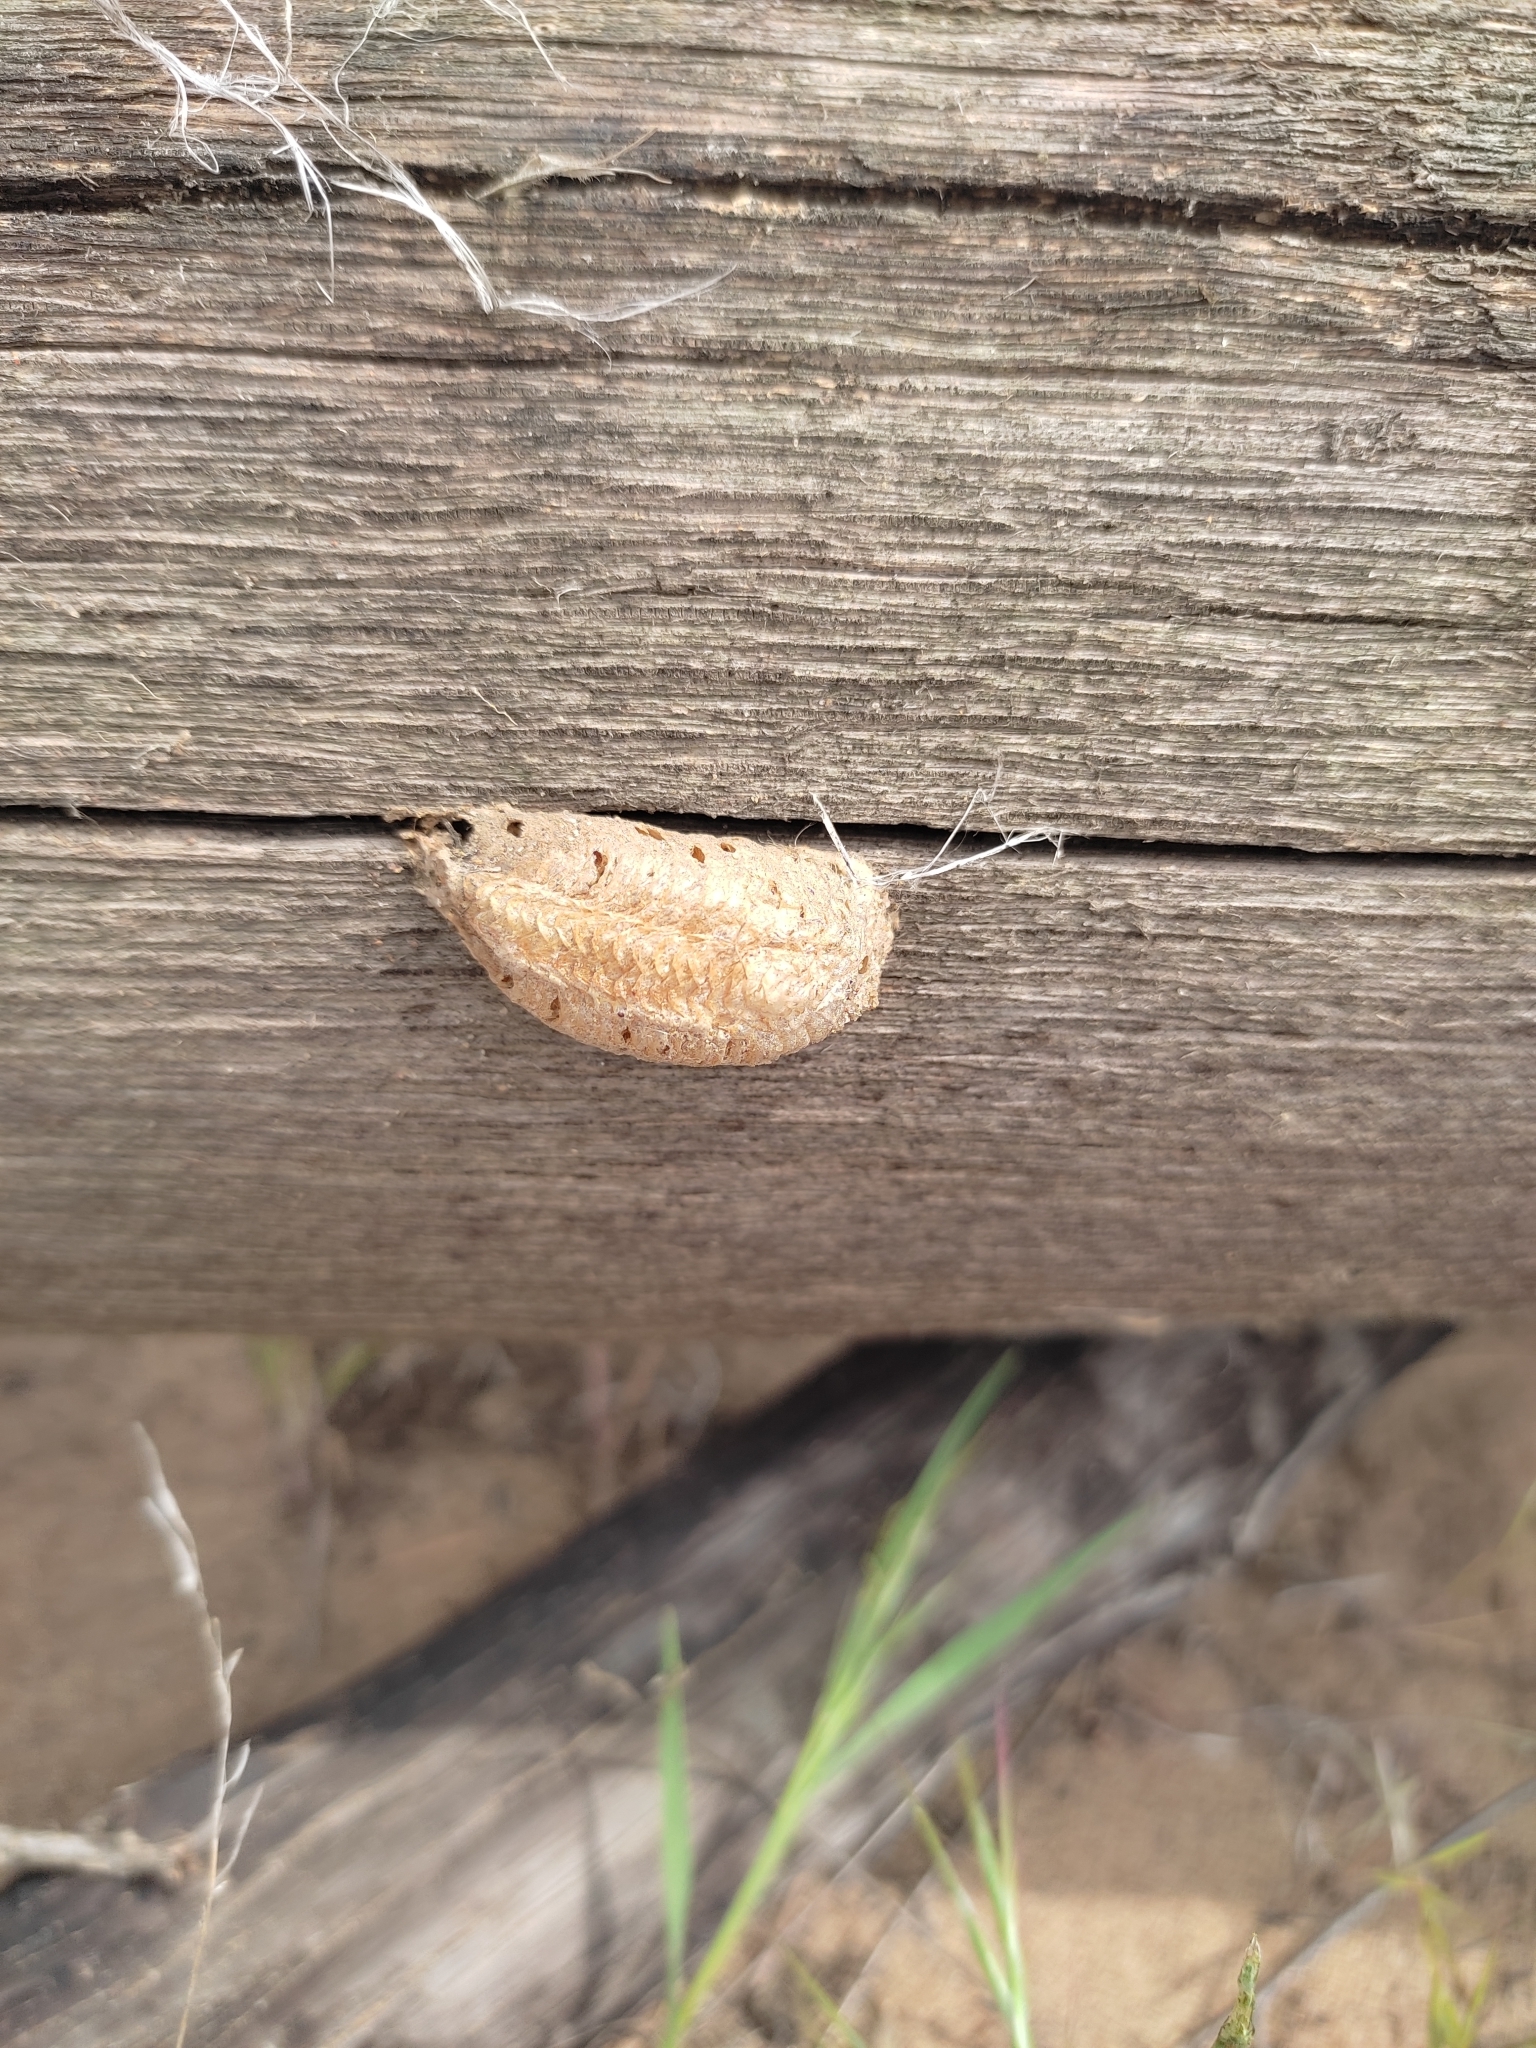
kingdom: Animalia
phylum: Arthropoda
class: Insecta
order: Mantodea
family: Mantidae
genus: Mantis
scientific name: Mantis religiosa
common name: Praying mantis
